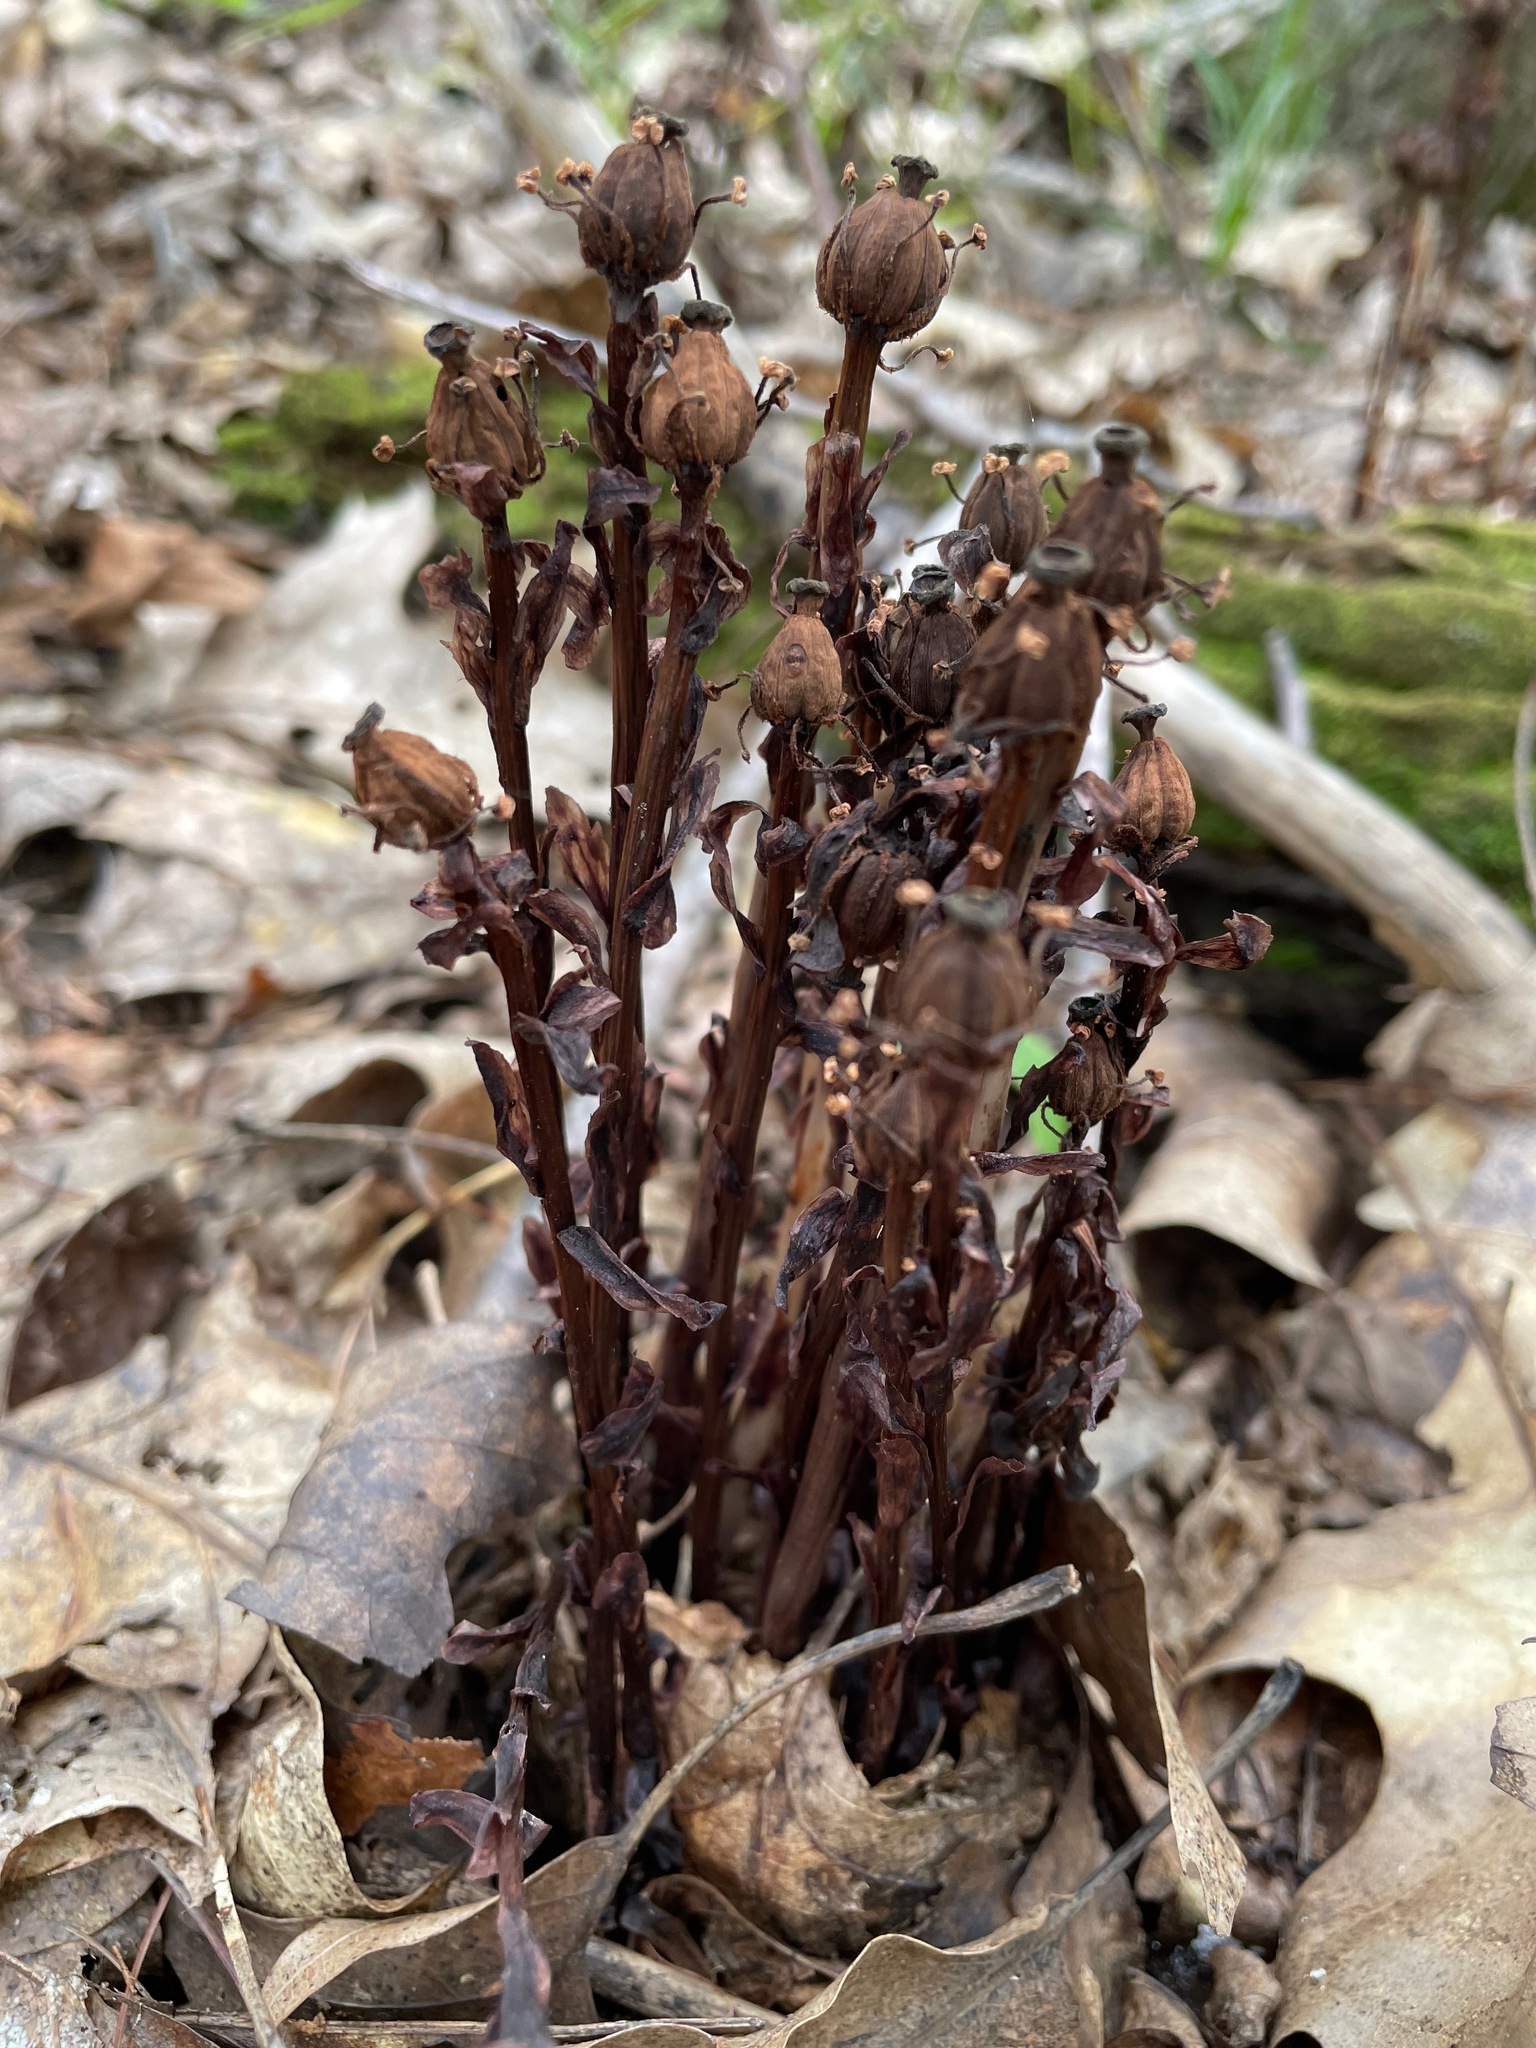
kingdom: Plantae
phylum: Tracheophyta
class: Magnoliopsida
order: Ericales
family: Ericaceae
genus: Monotropa
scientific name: Monotropa uniflora
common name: Convulsion root
